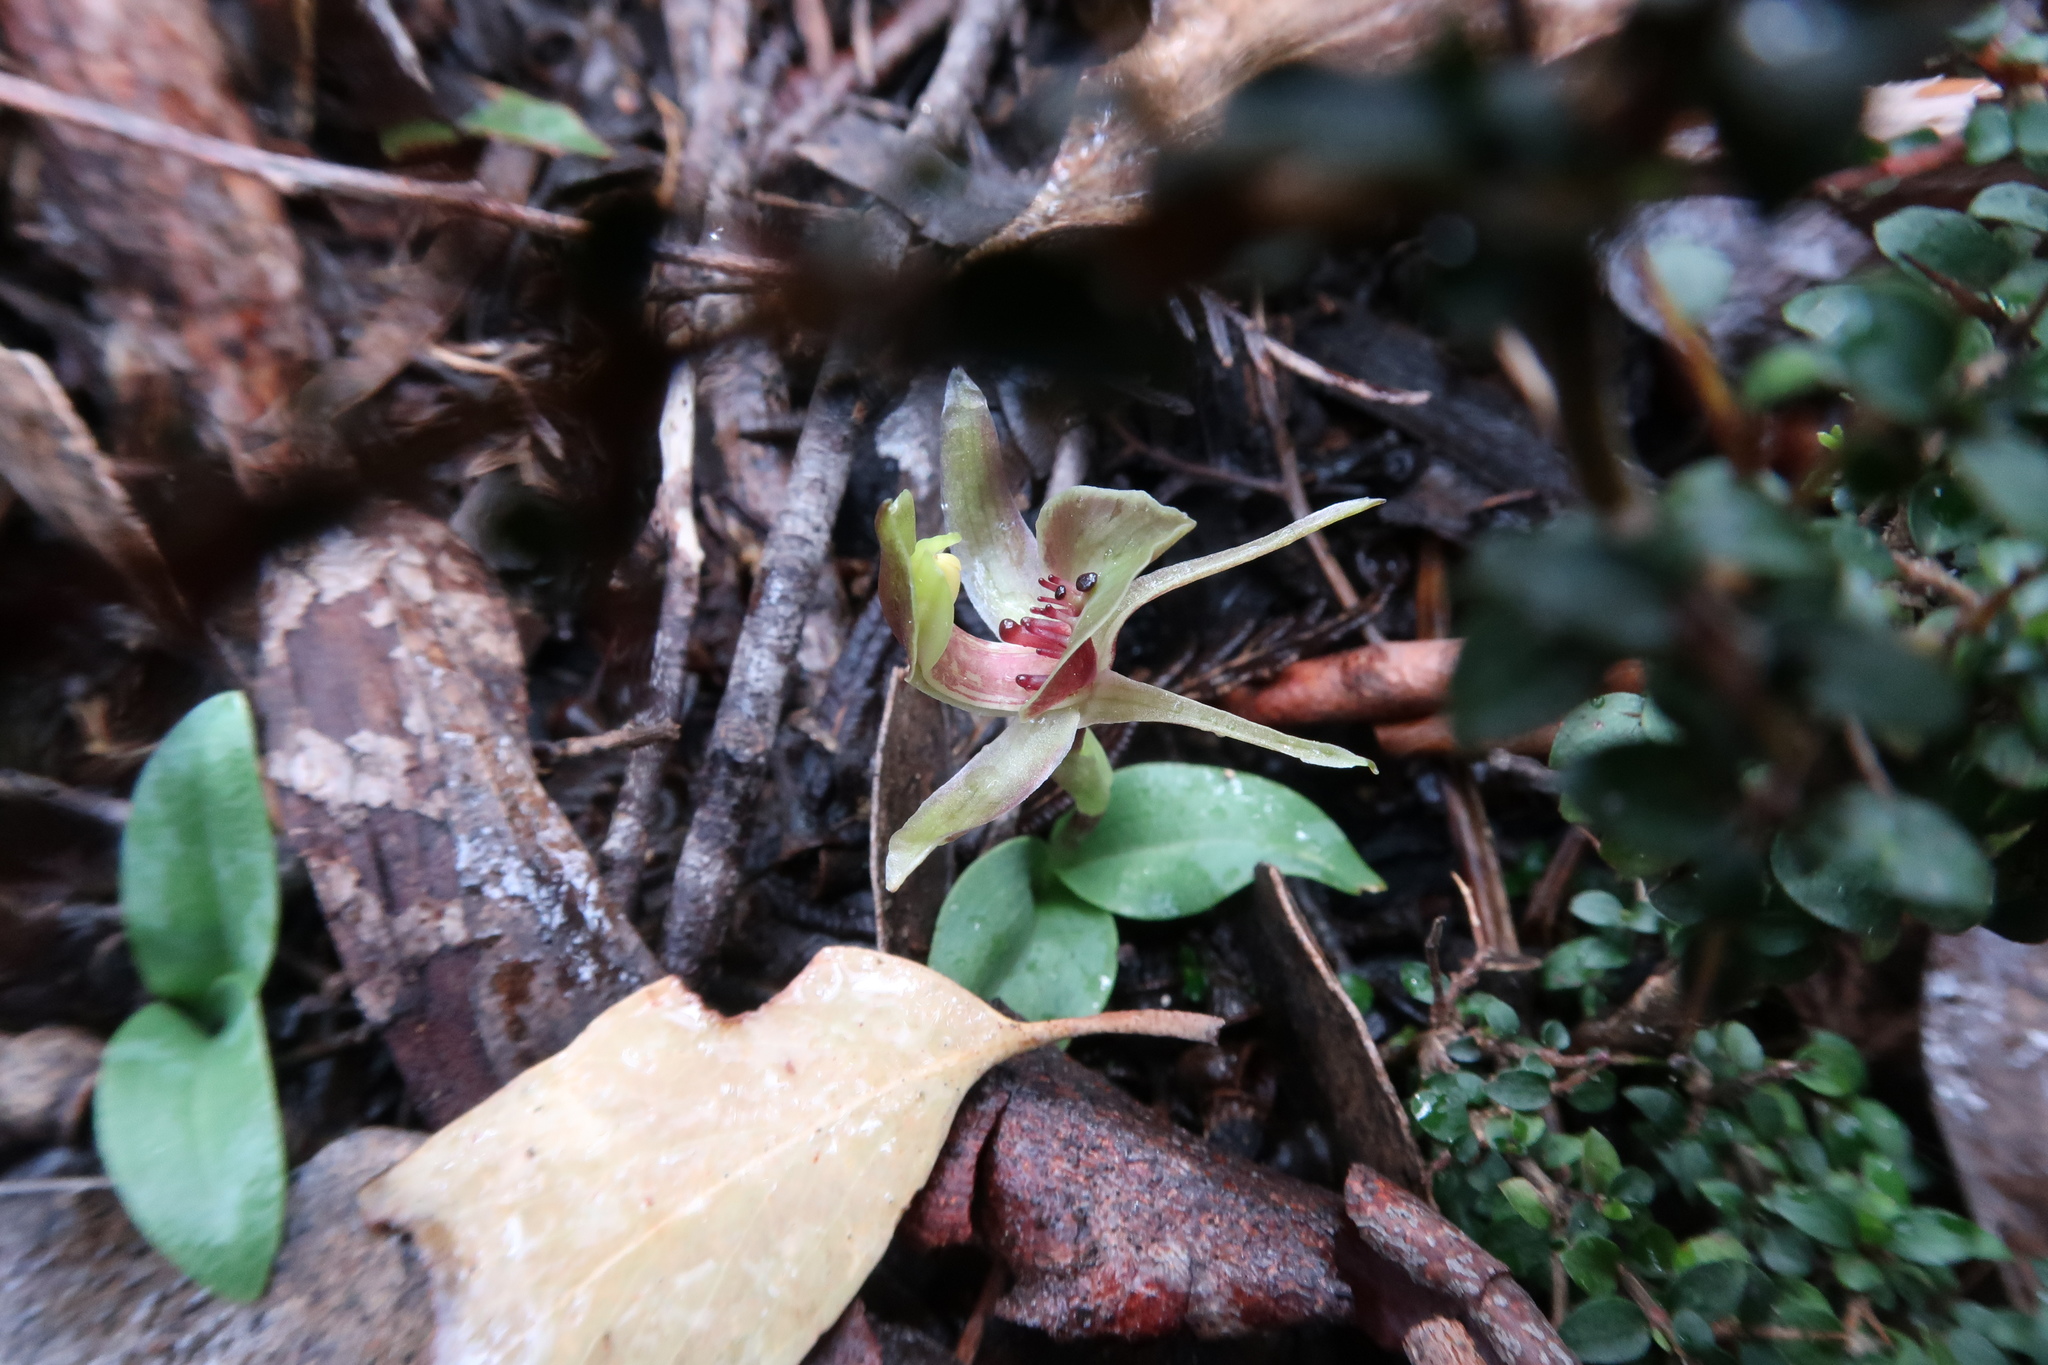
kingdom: Plantae
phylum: Tracheophyta
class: Liliopsida
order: Asparagales
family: Orchidaceae
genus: Chiloglottis
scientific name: Chiloglottis triceratops
